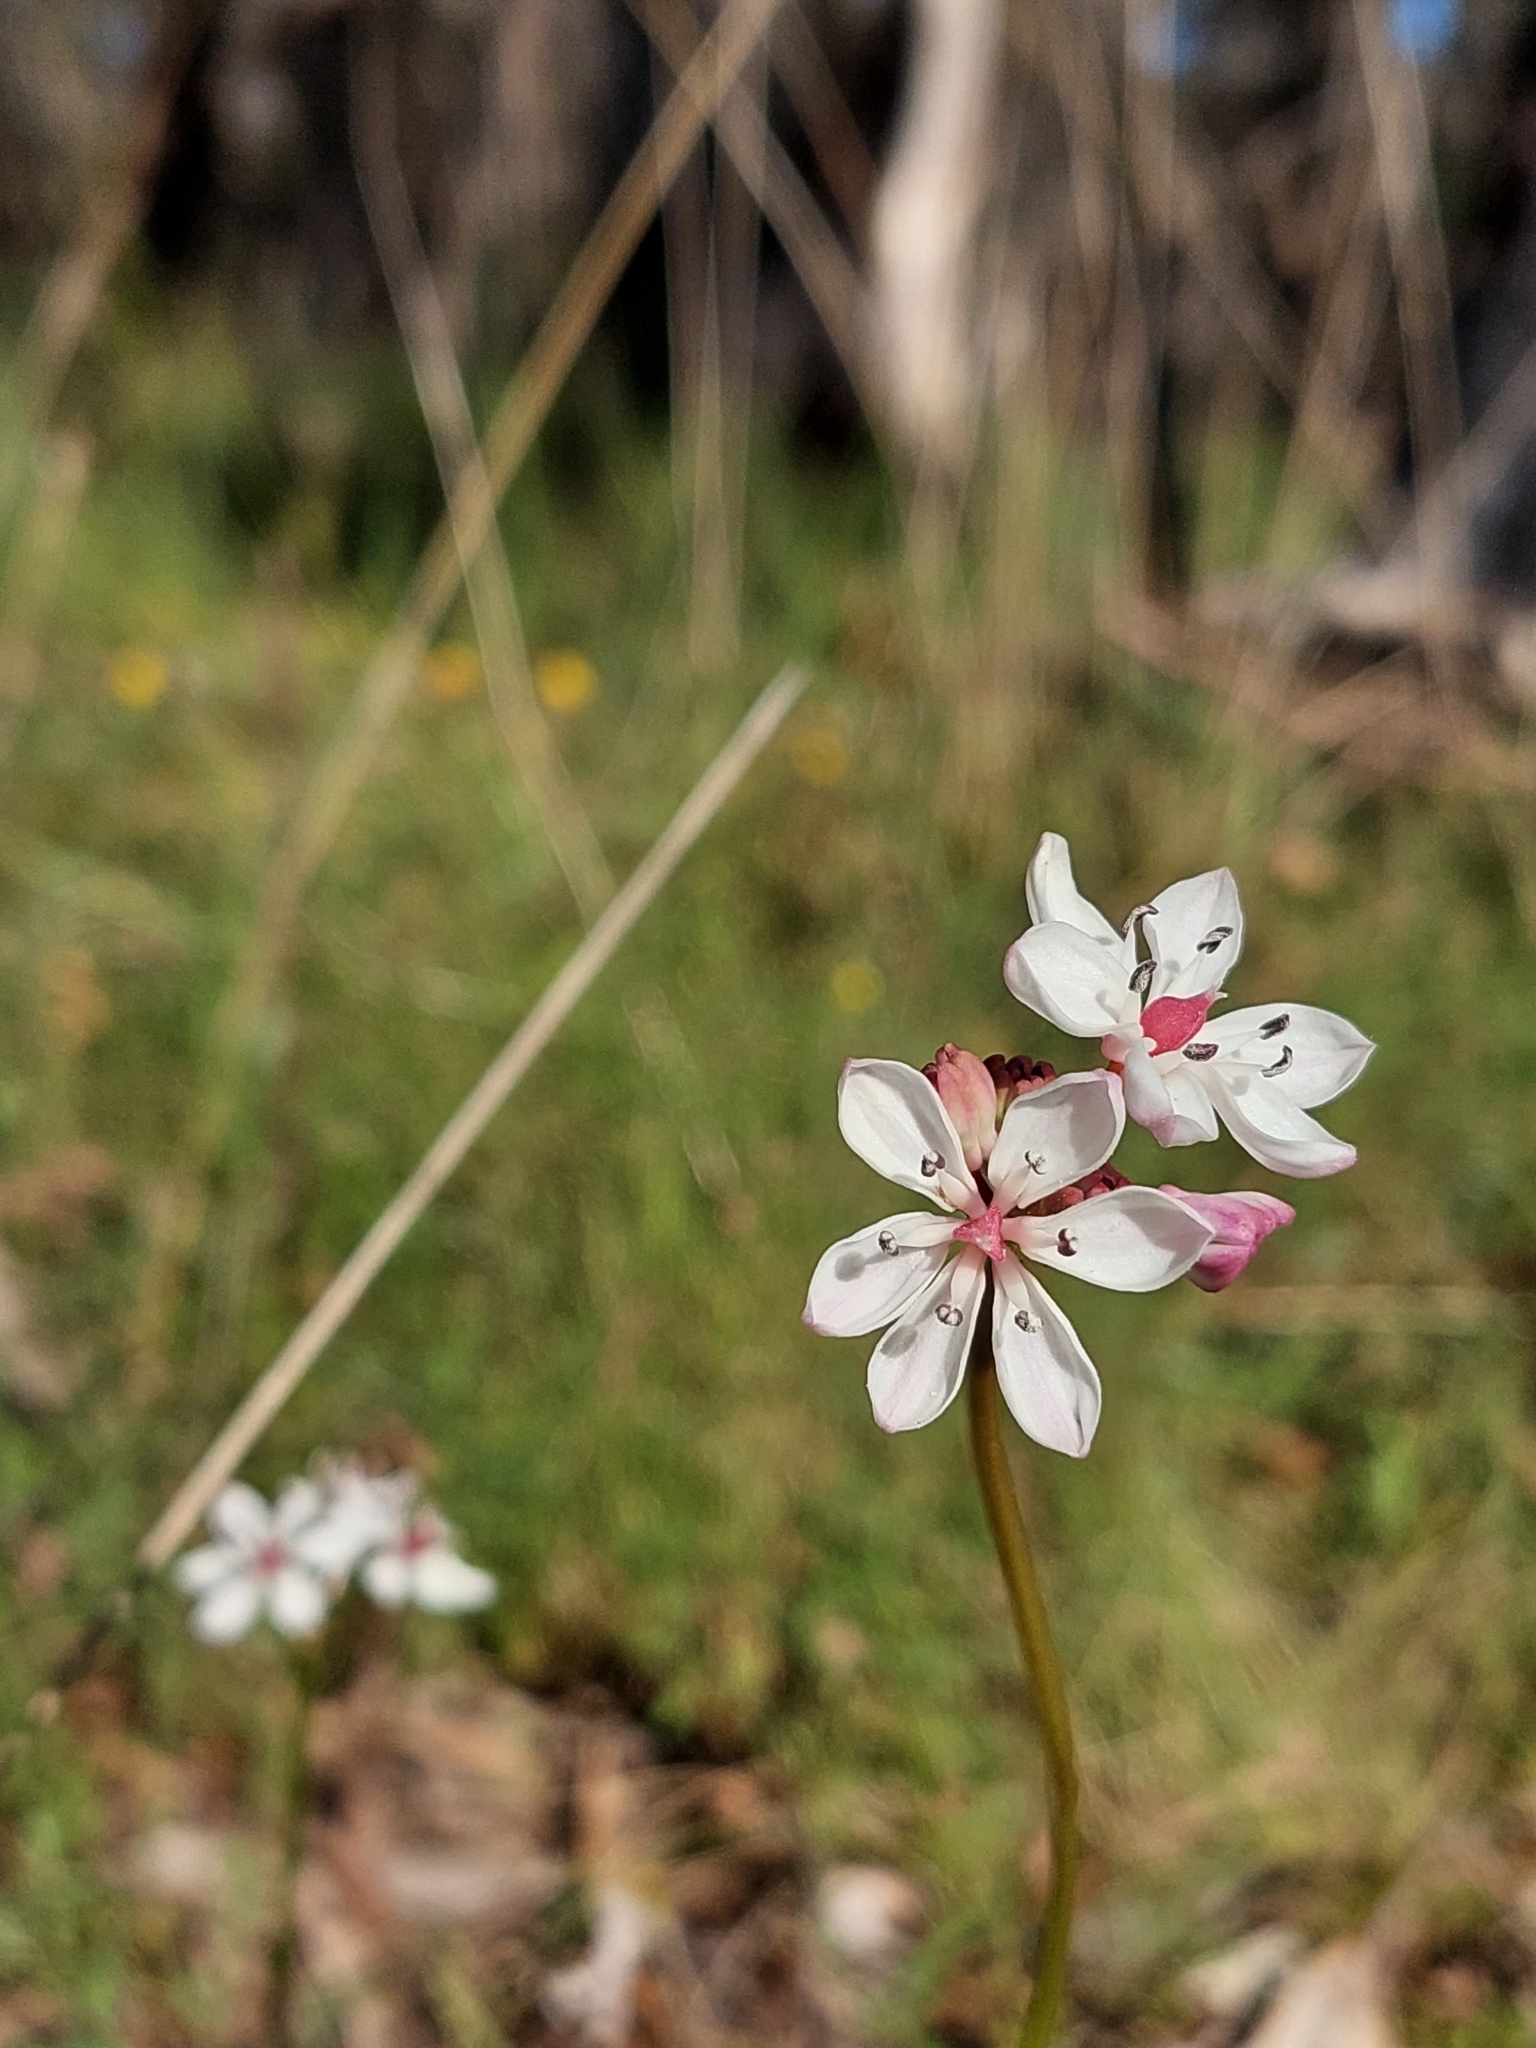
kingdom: Plantae
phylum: Tracheophyta
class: Liliopsida
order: Liliales
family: Colchicaceae
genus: Burchardia
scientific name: Burchardia umbellata
